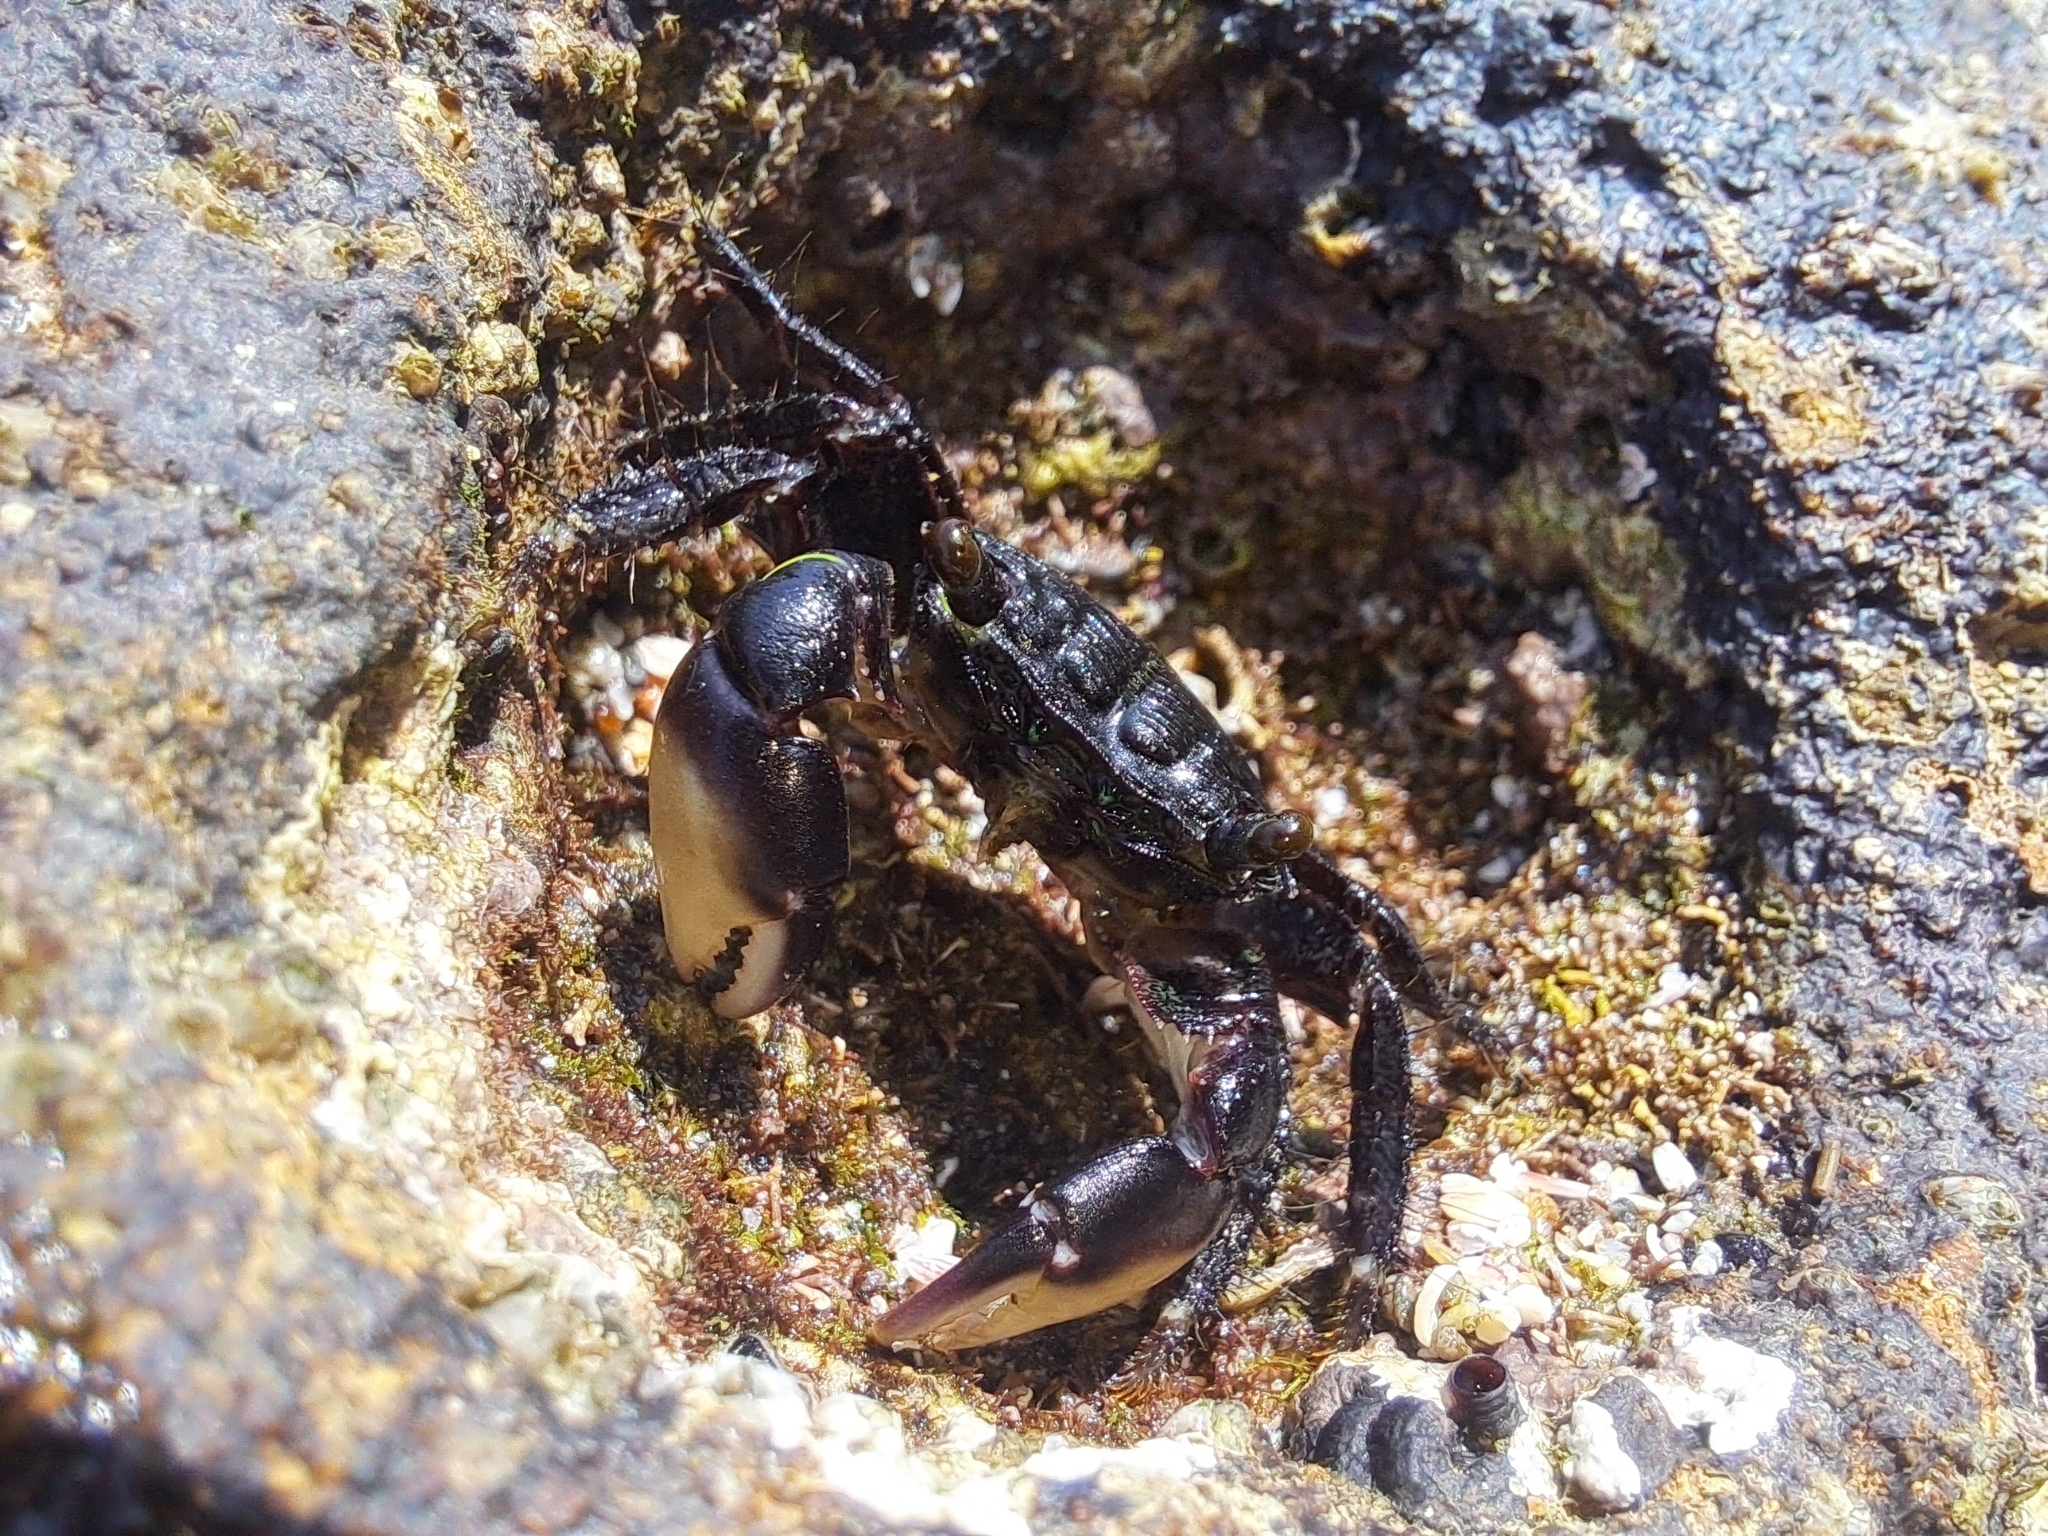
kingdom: Animalia
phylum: Arthropoda
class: Malacostraca
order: Decapoda
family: Grapsidae
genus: Pachygrapsus
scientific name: Pachygrapsus socius
